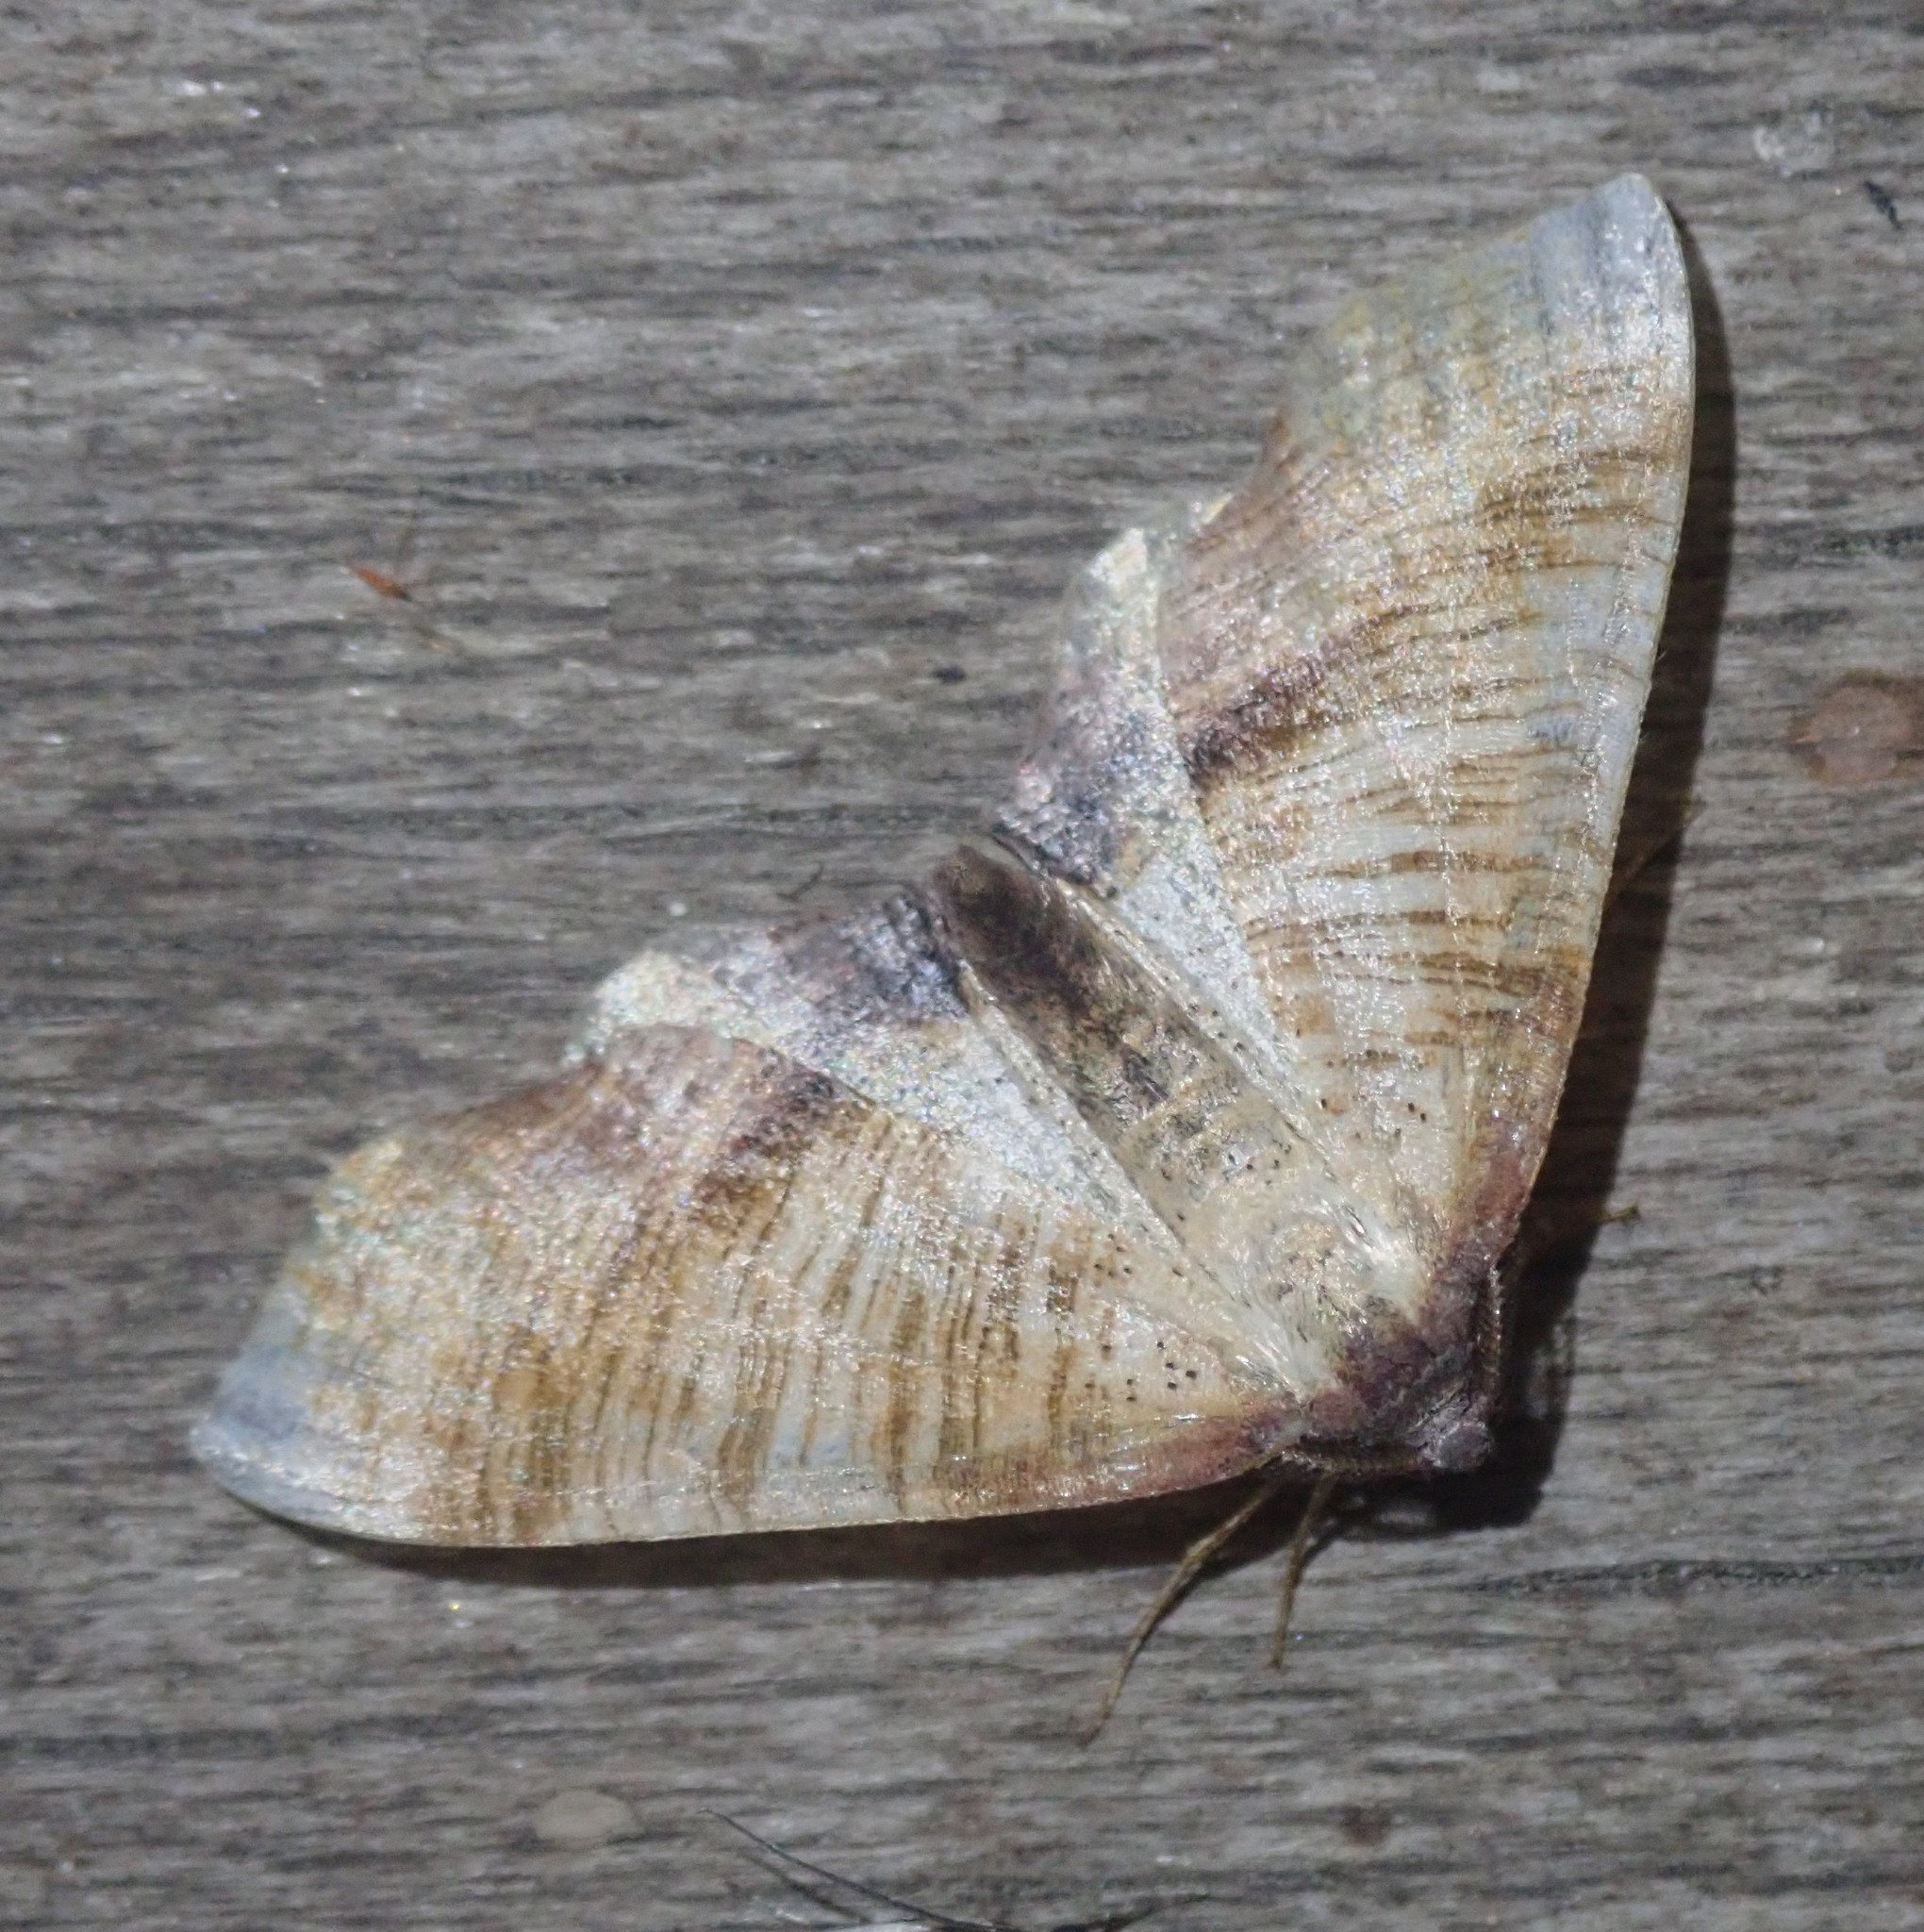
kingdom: Animalia
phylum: Arthropoda
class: Insecta
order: Lepidoptera
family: Geometridae
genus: Plagodis
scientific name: Plagodis dolabraria
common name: Scorched wing
